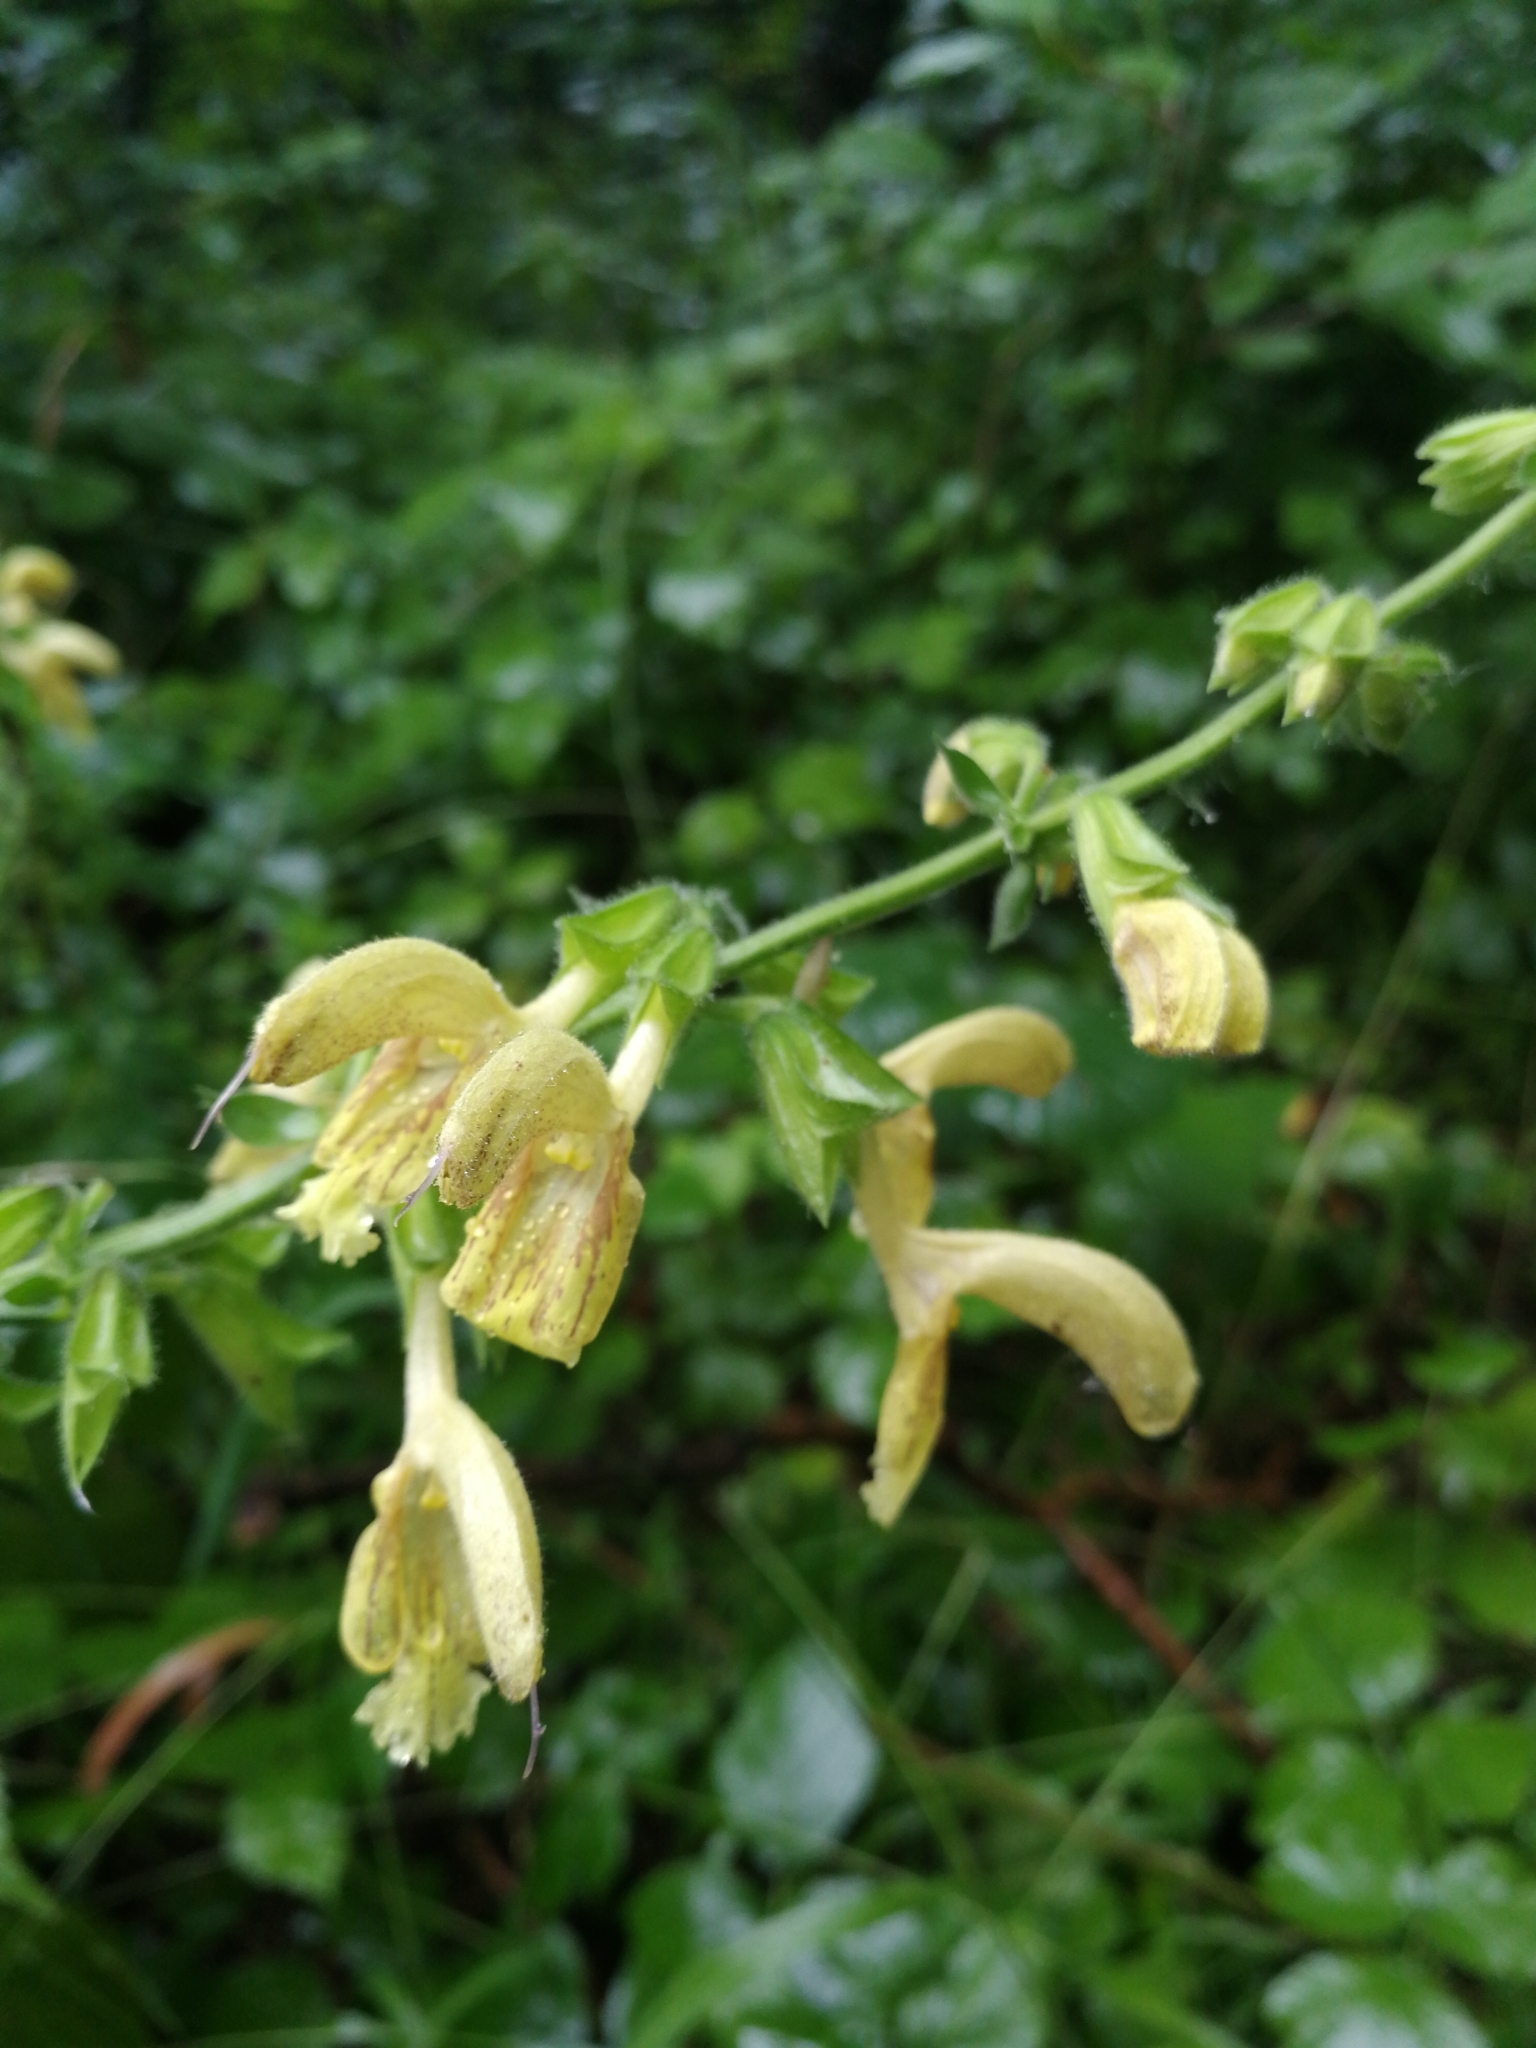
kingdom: Plantae
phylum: Tracheophyta
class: Magnoliopsida
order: Lamiales
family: Lamiaceae
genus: Salvia
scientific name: Salvia glutinosa
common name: Sticky clary
